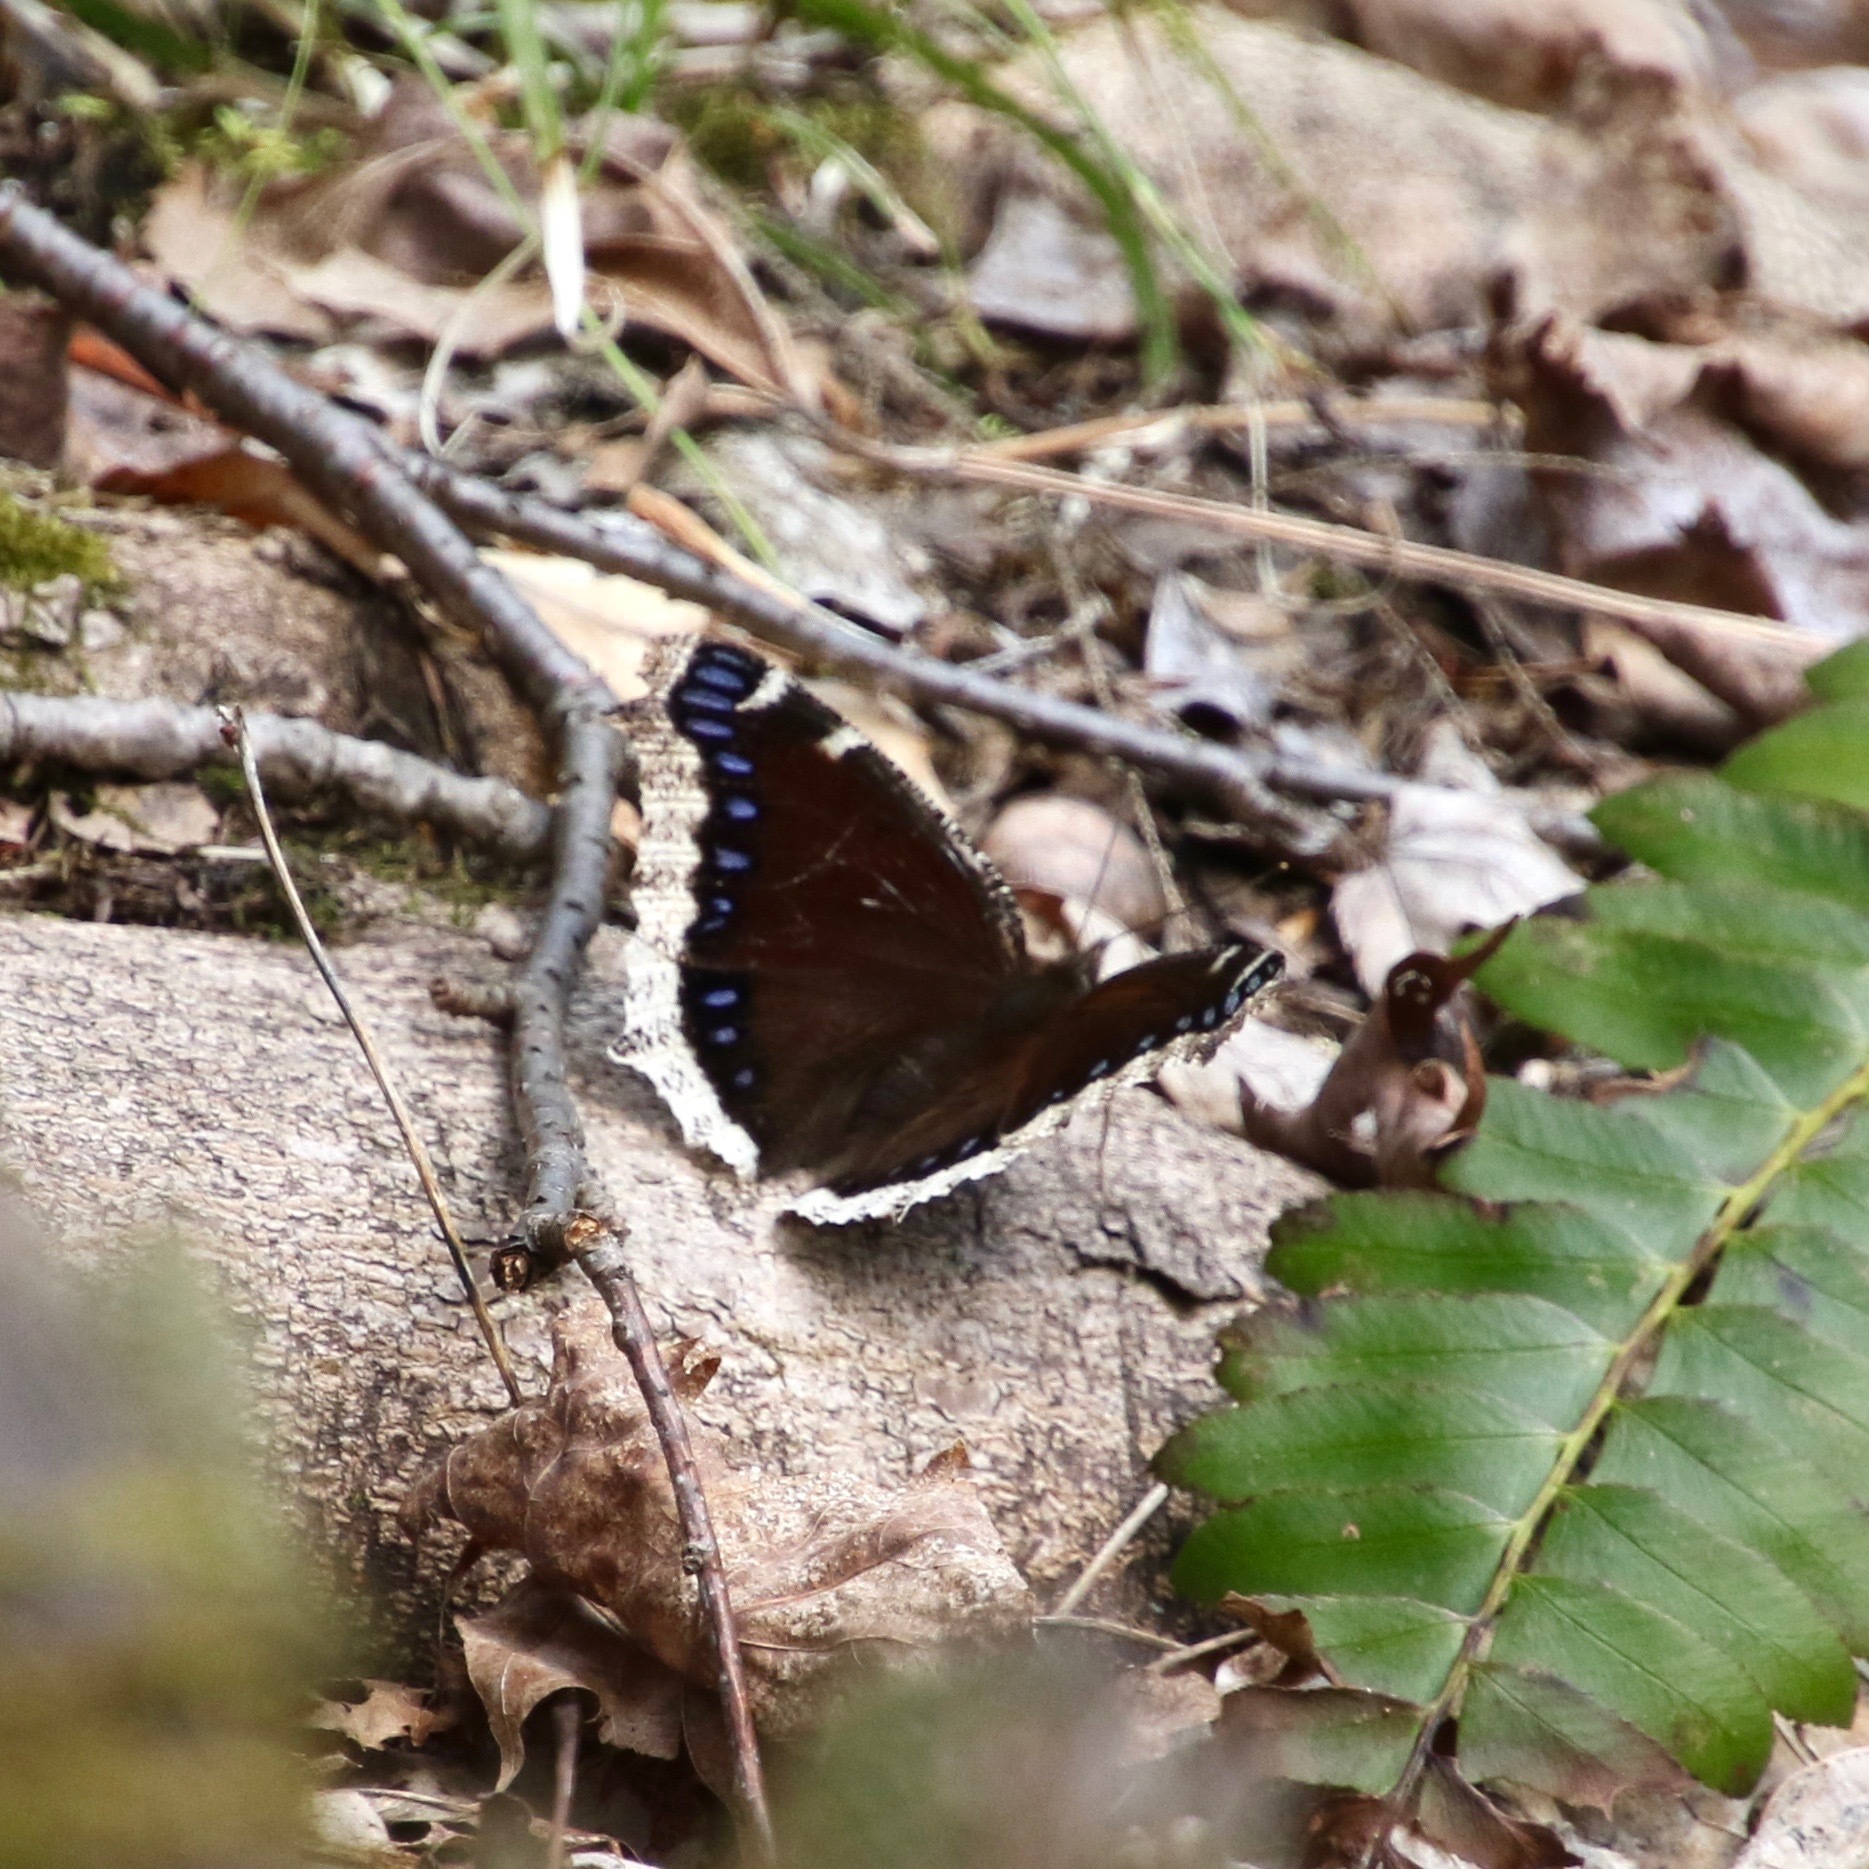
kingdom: Animalia
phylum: Arthropoda
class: Insecta
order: Lepidoptera
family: Nymphalidae
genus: Nymphalis
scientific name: Nymphalis antiopa
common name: Camberwell beauty
